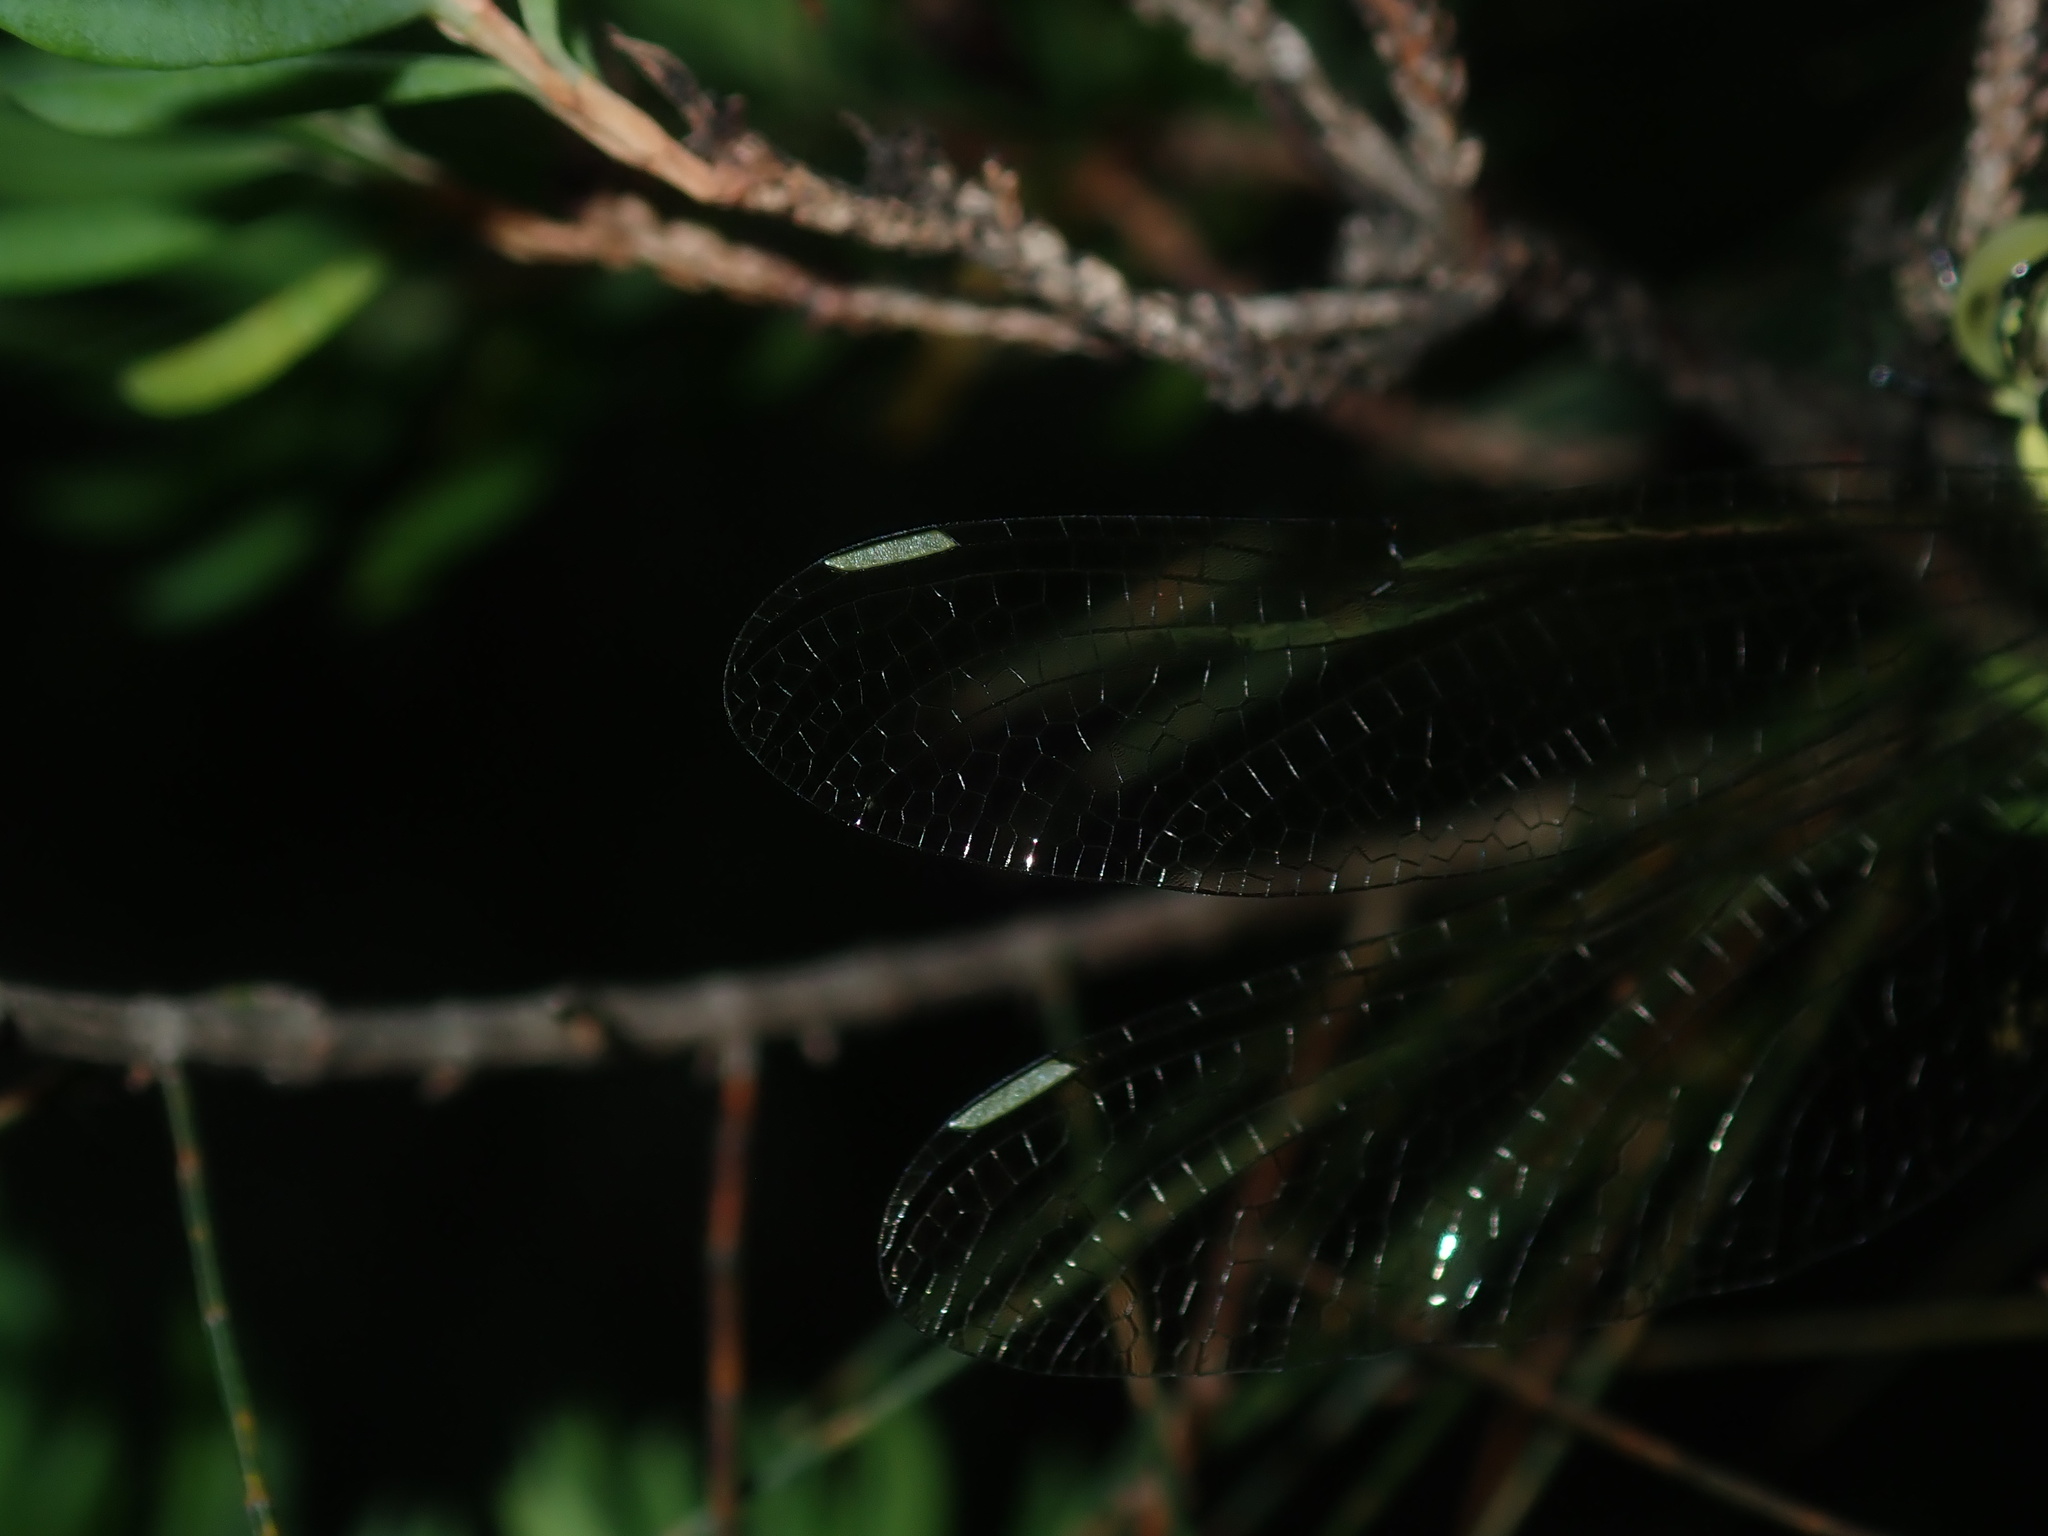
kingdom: Animalia
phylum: Arthropoda
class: Insecta
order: Odonata
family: Synthemistidae
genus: Choristhemis
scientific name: Choristhemis flavoterminata
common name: Yellow-tipped tigertail
